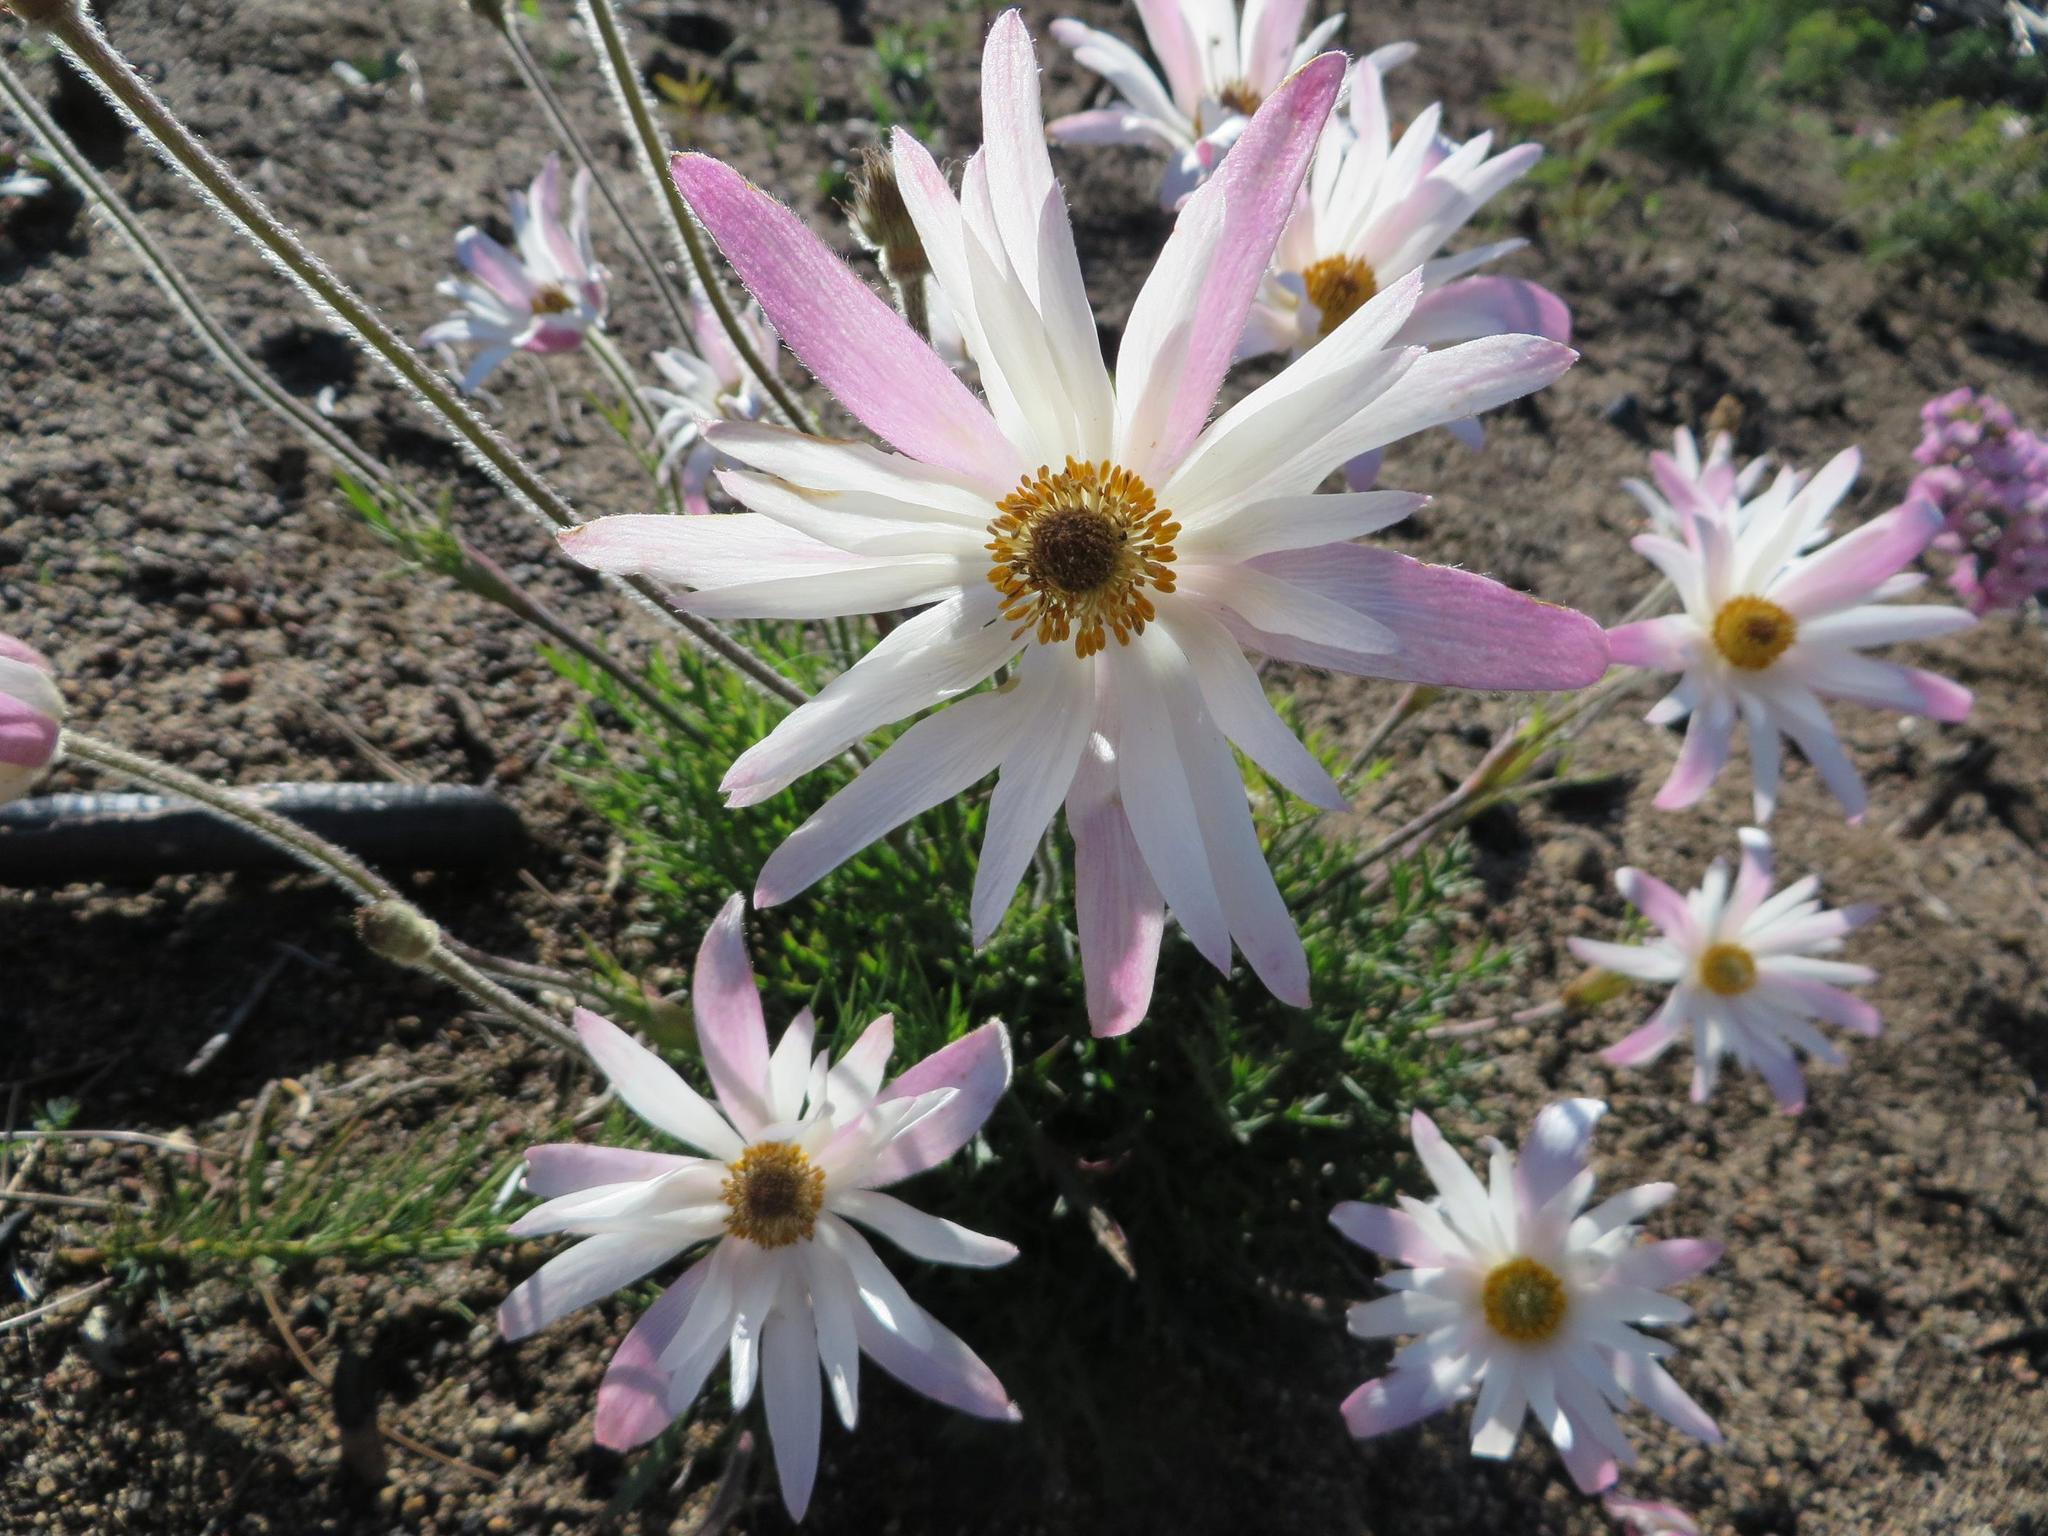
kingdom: Plantae
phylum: Tracheophyta
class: Magnoliopsida
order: Ranunculales
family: Ranunculaceae
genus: Knowltonia
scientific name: Knowltonia tenuifolia
